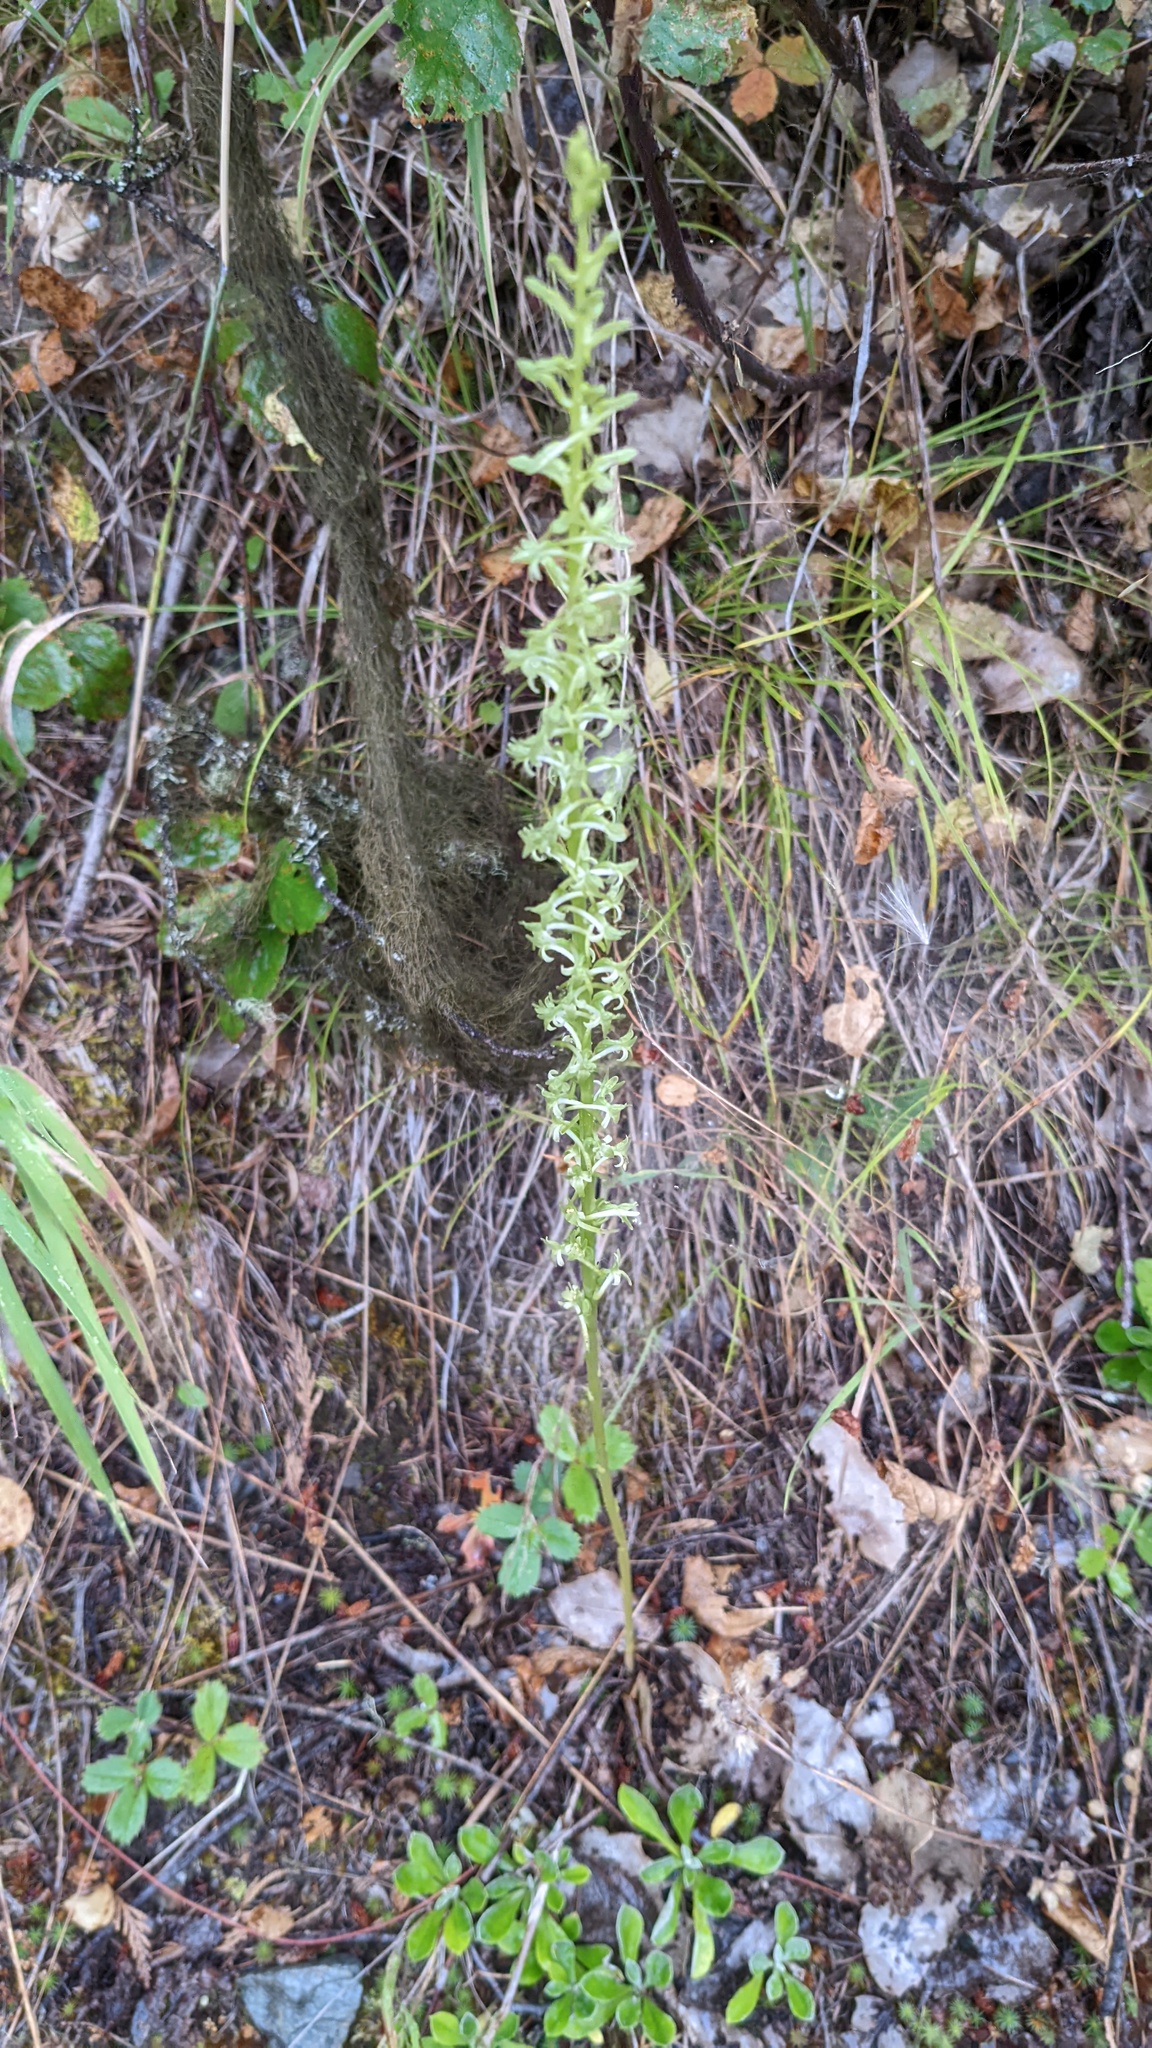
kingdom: Plantae
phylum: Tracheophyta
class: Liliopsida
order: Asparagales
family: Orchidaceae
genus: Platanthera
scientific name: Platanthera elongata
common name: Dense-flowered rein orchid
